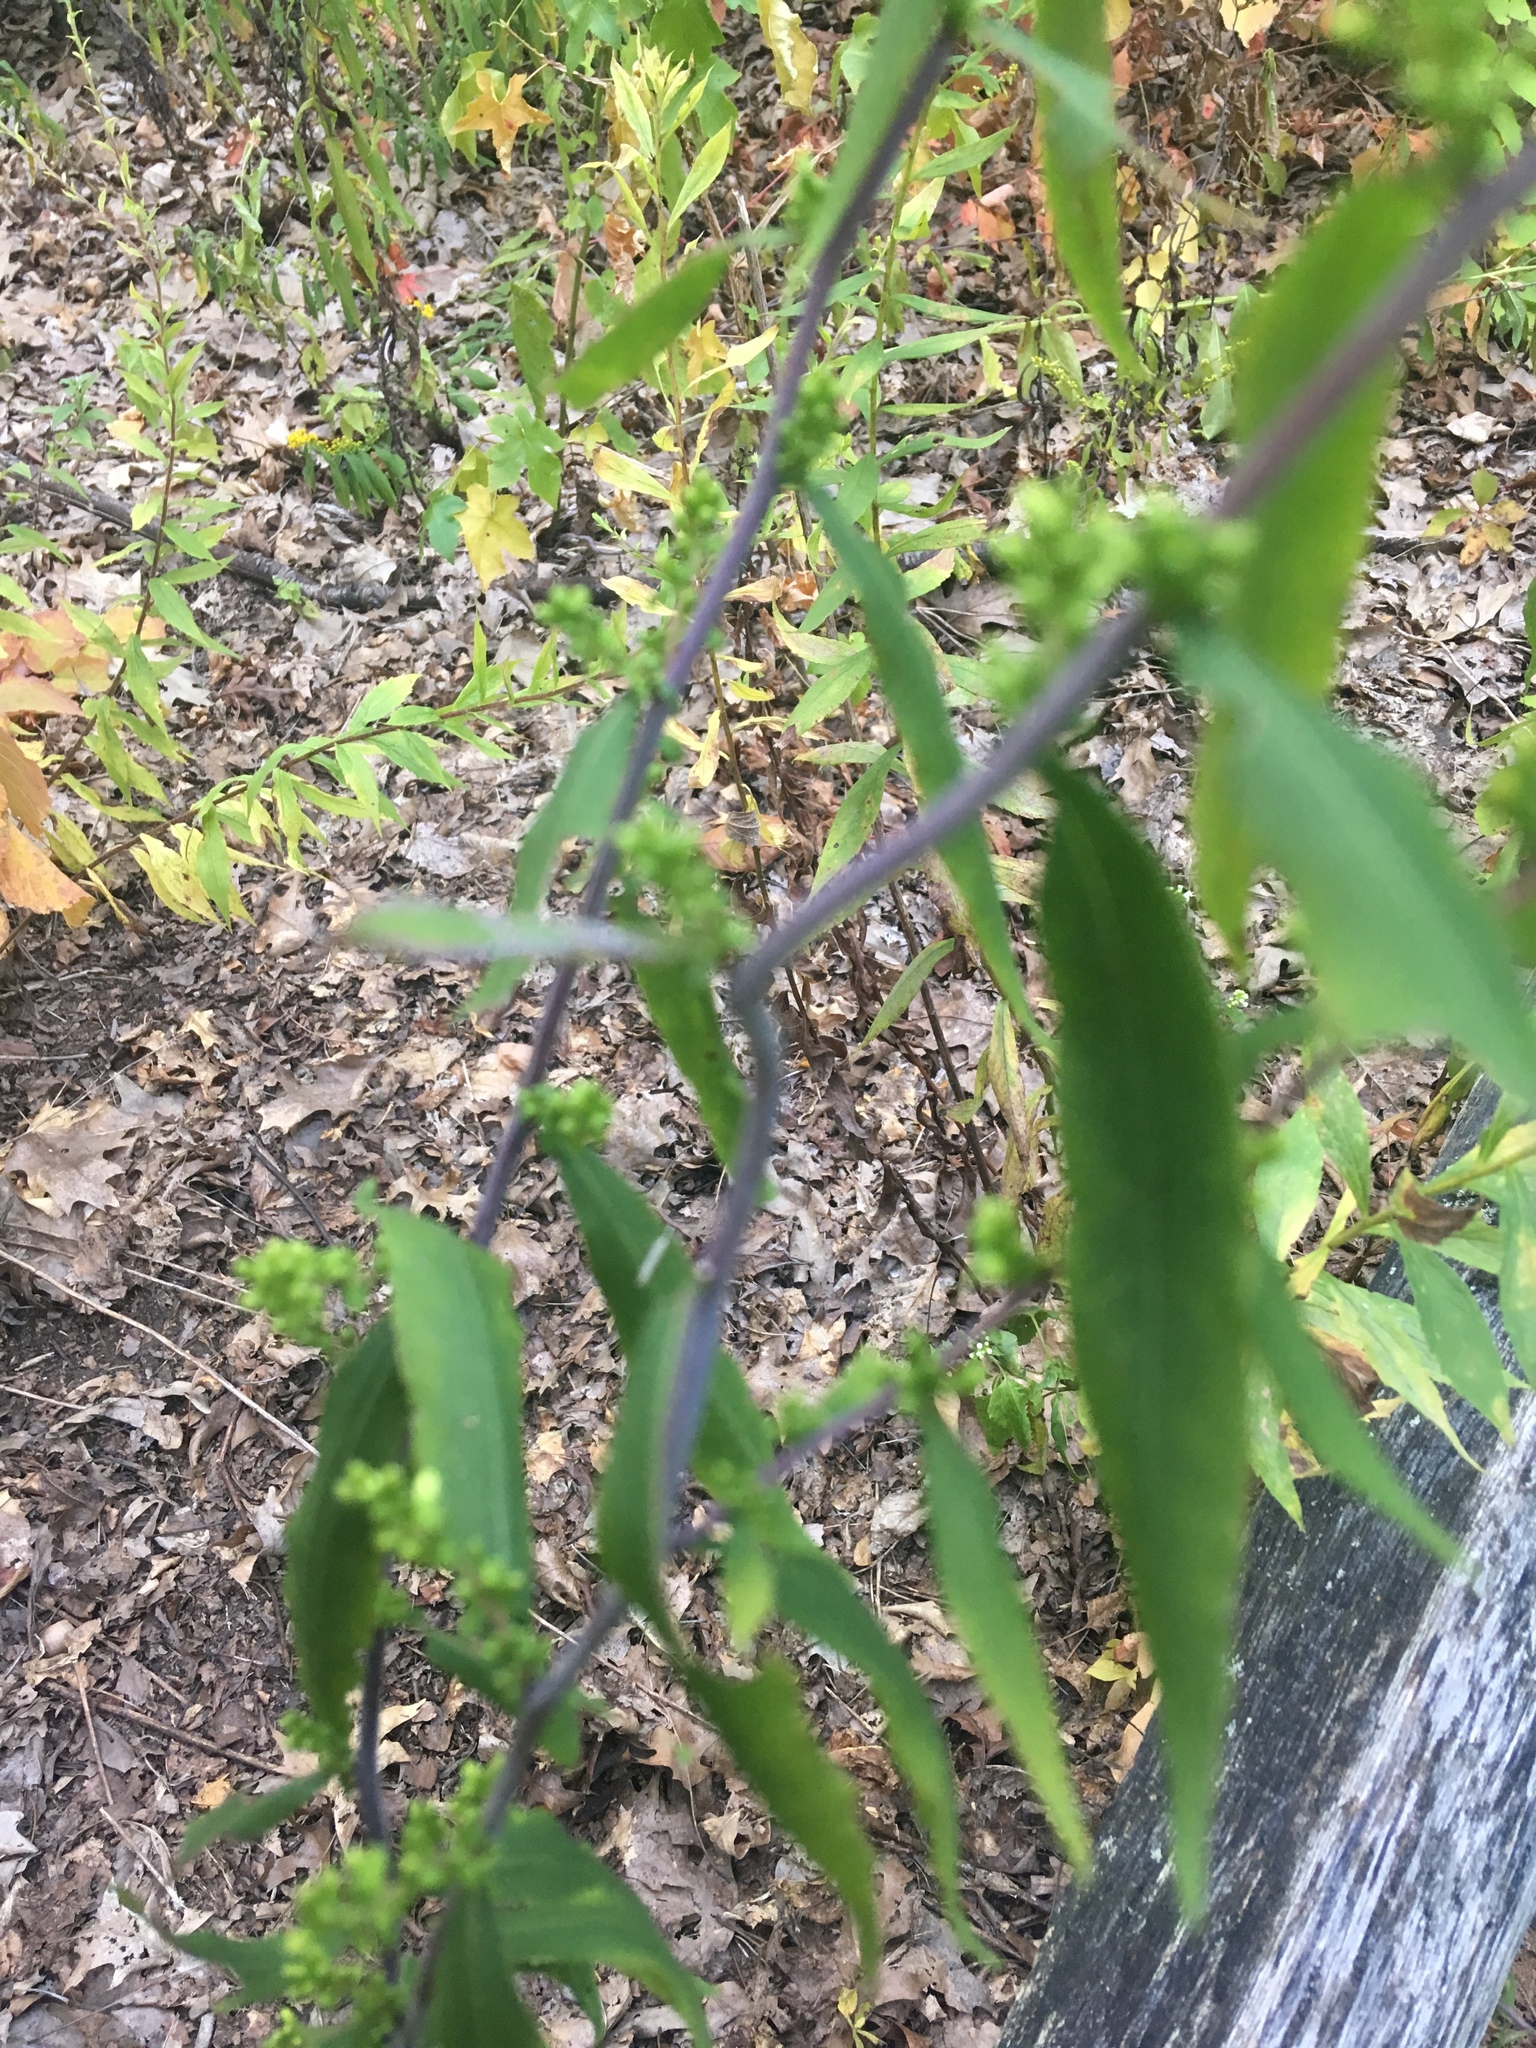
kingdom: Plantae
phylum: Tracheophyta
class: Magnoliopsida
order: Asterales
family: Asteraceae
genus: Solidago
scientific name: Solidago caesia
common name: Woodland goldenrod
